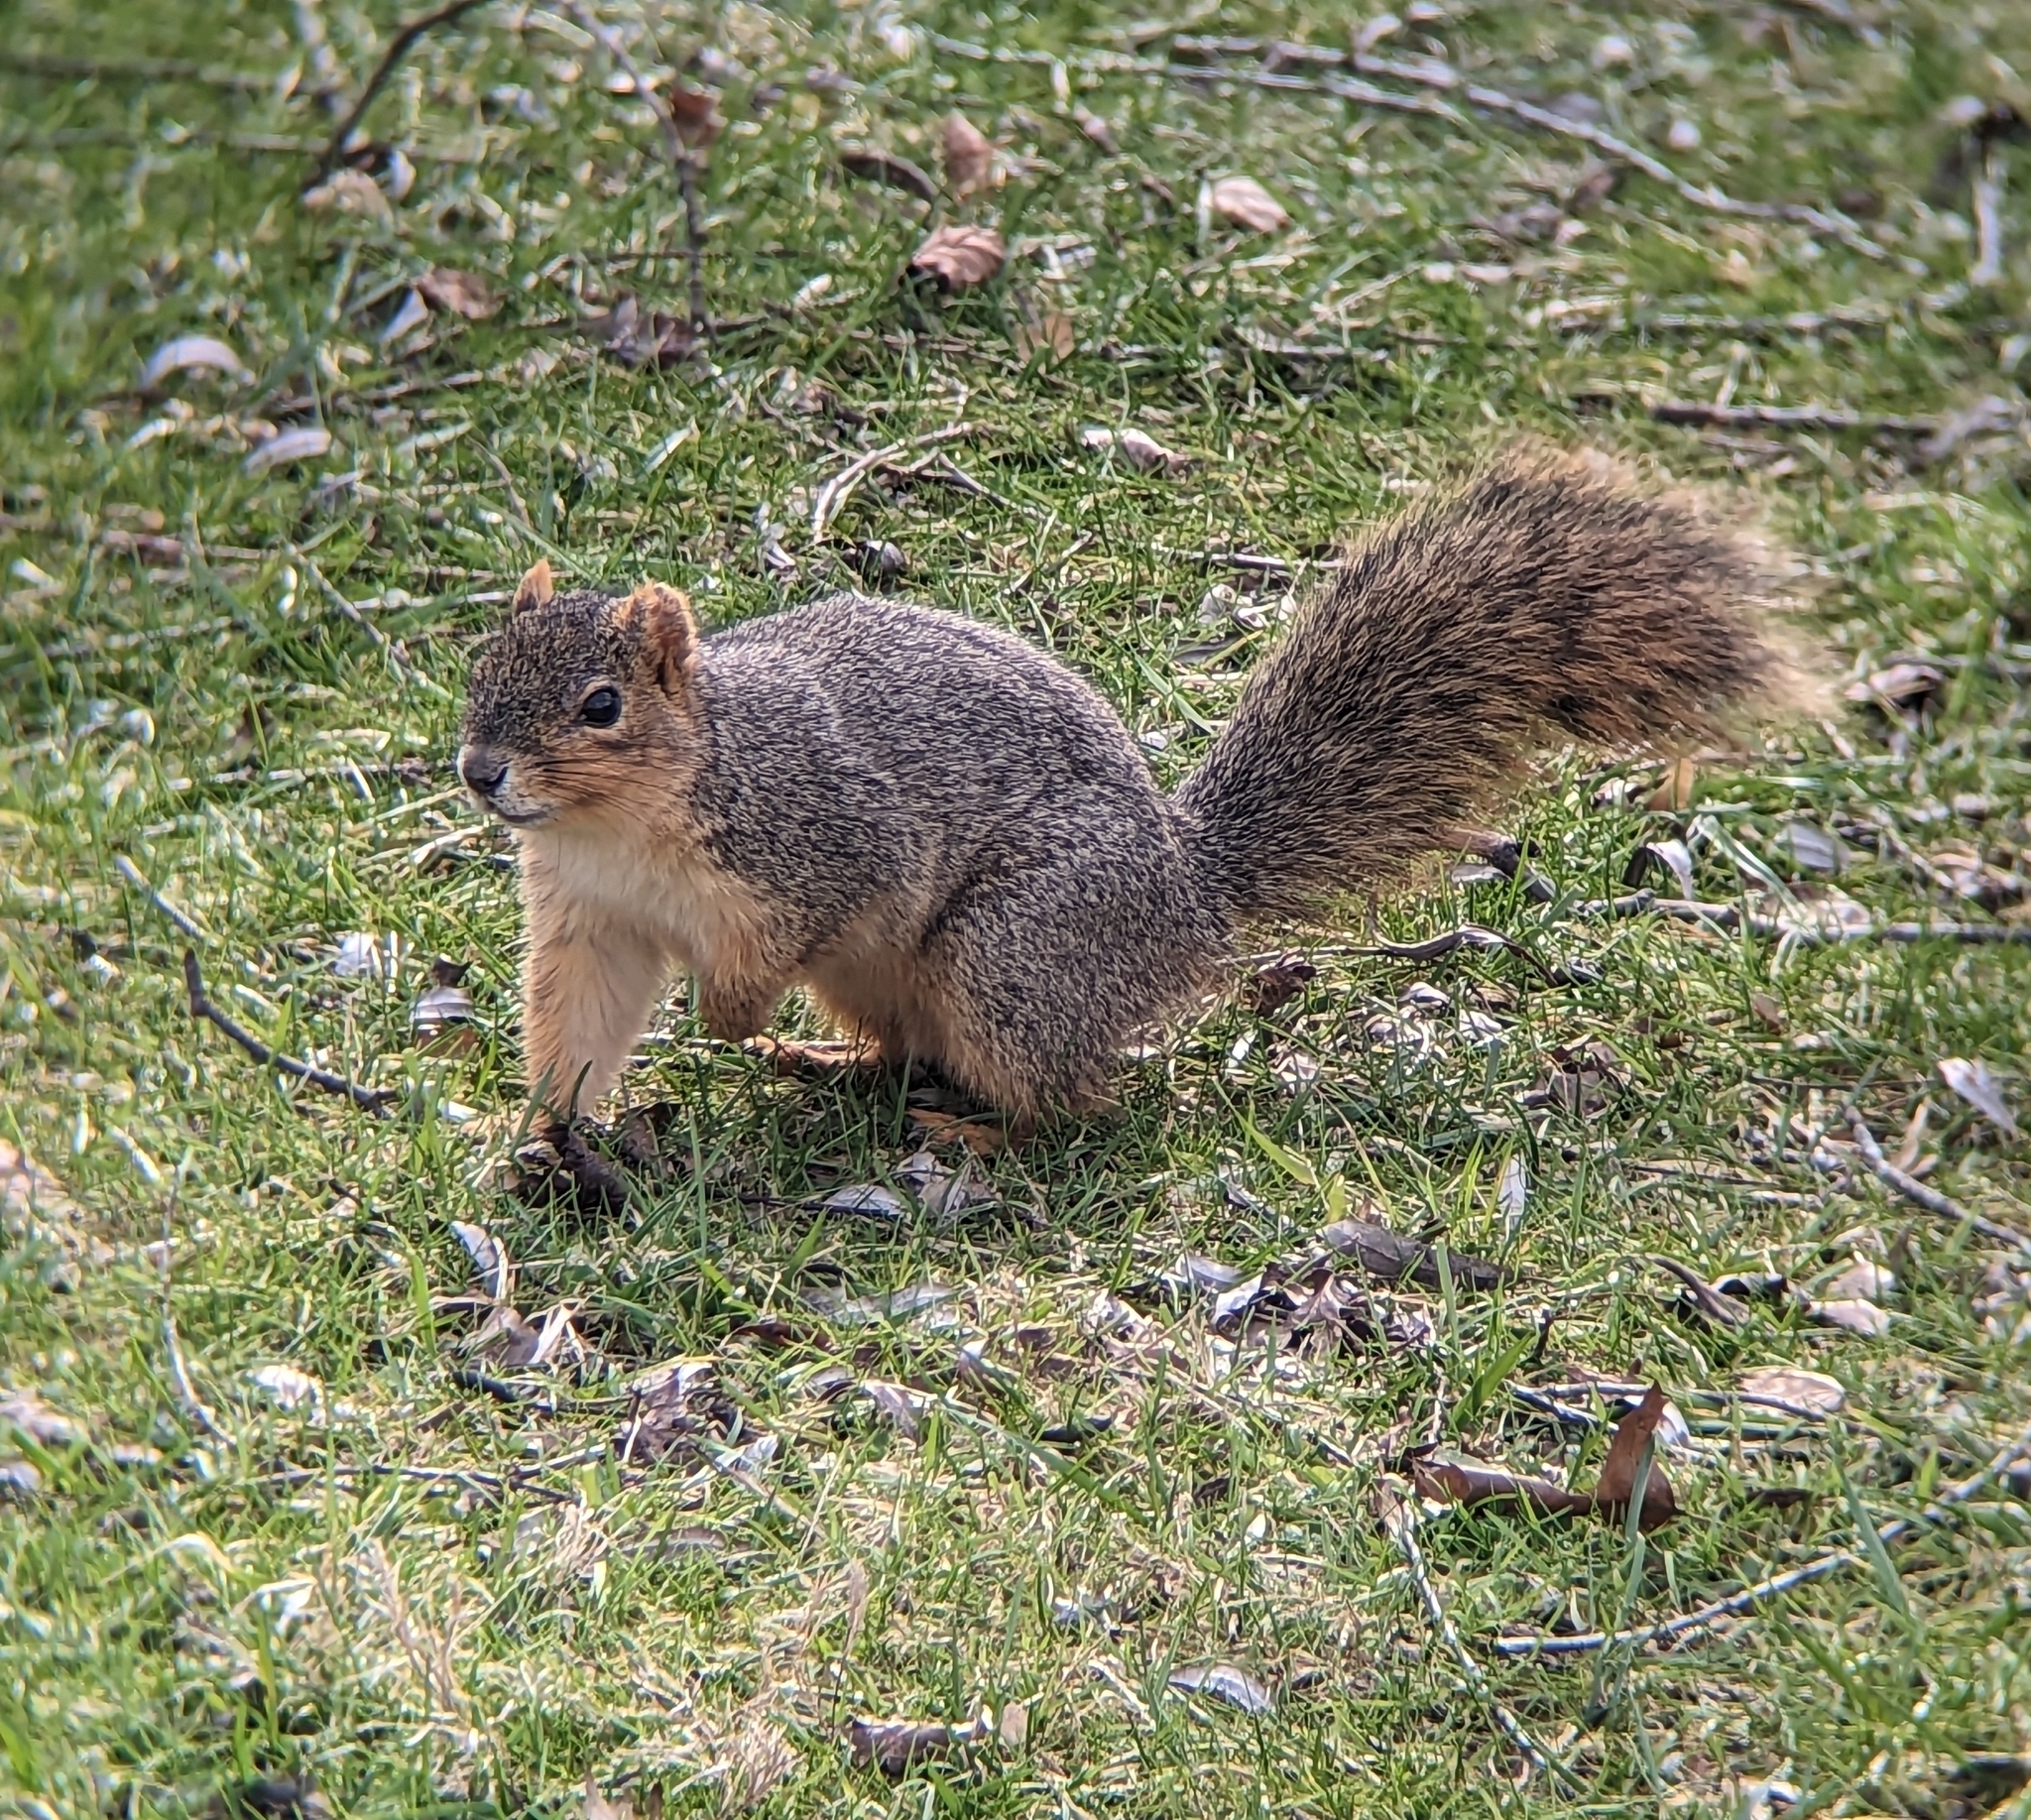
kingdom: Animalia
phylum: Chordata
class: Mammalia
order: Rodentia
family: Sciuridae
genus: Sciurus
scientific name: Sciurus niger
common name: Fox squirrel
